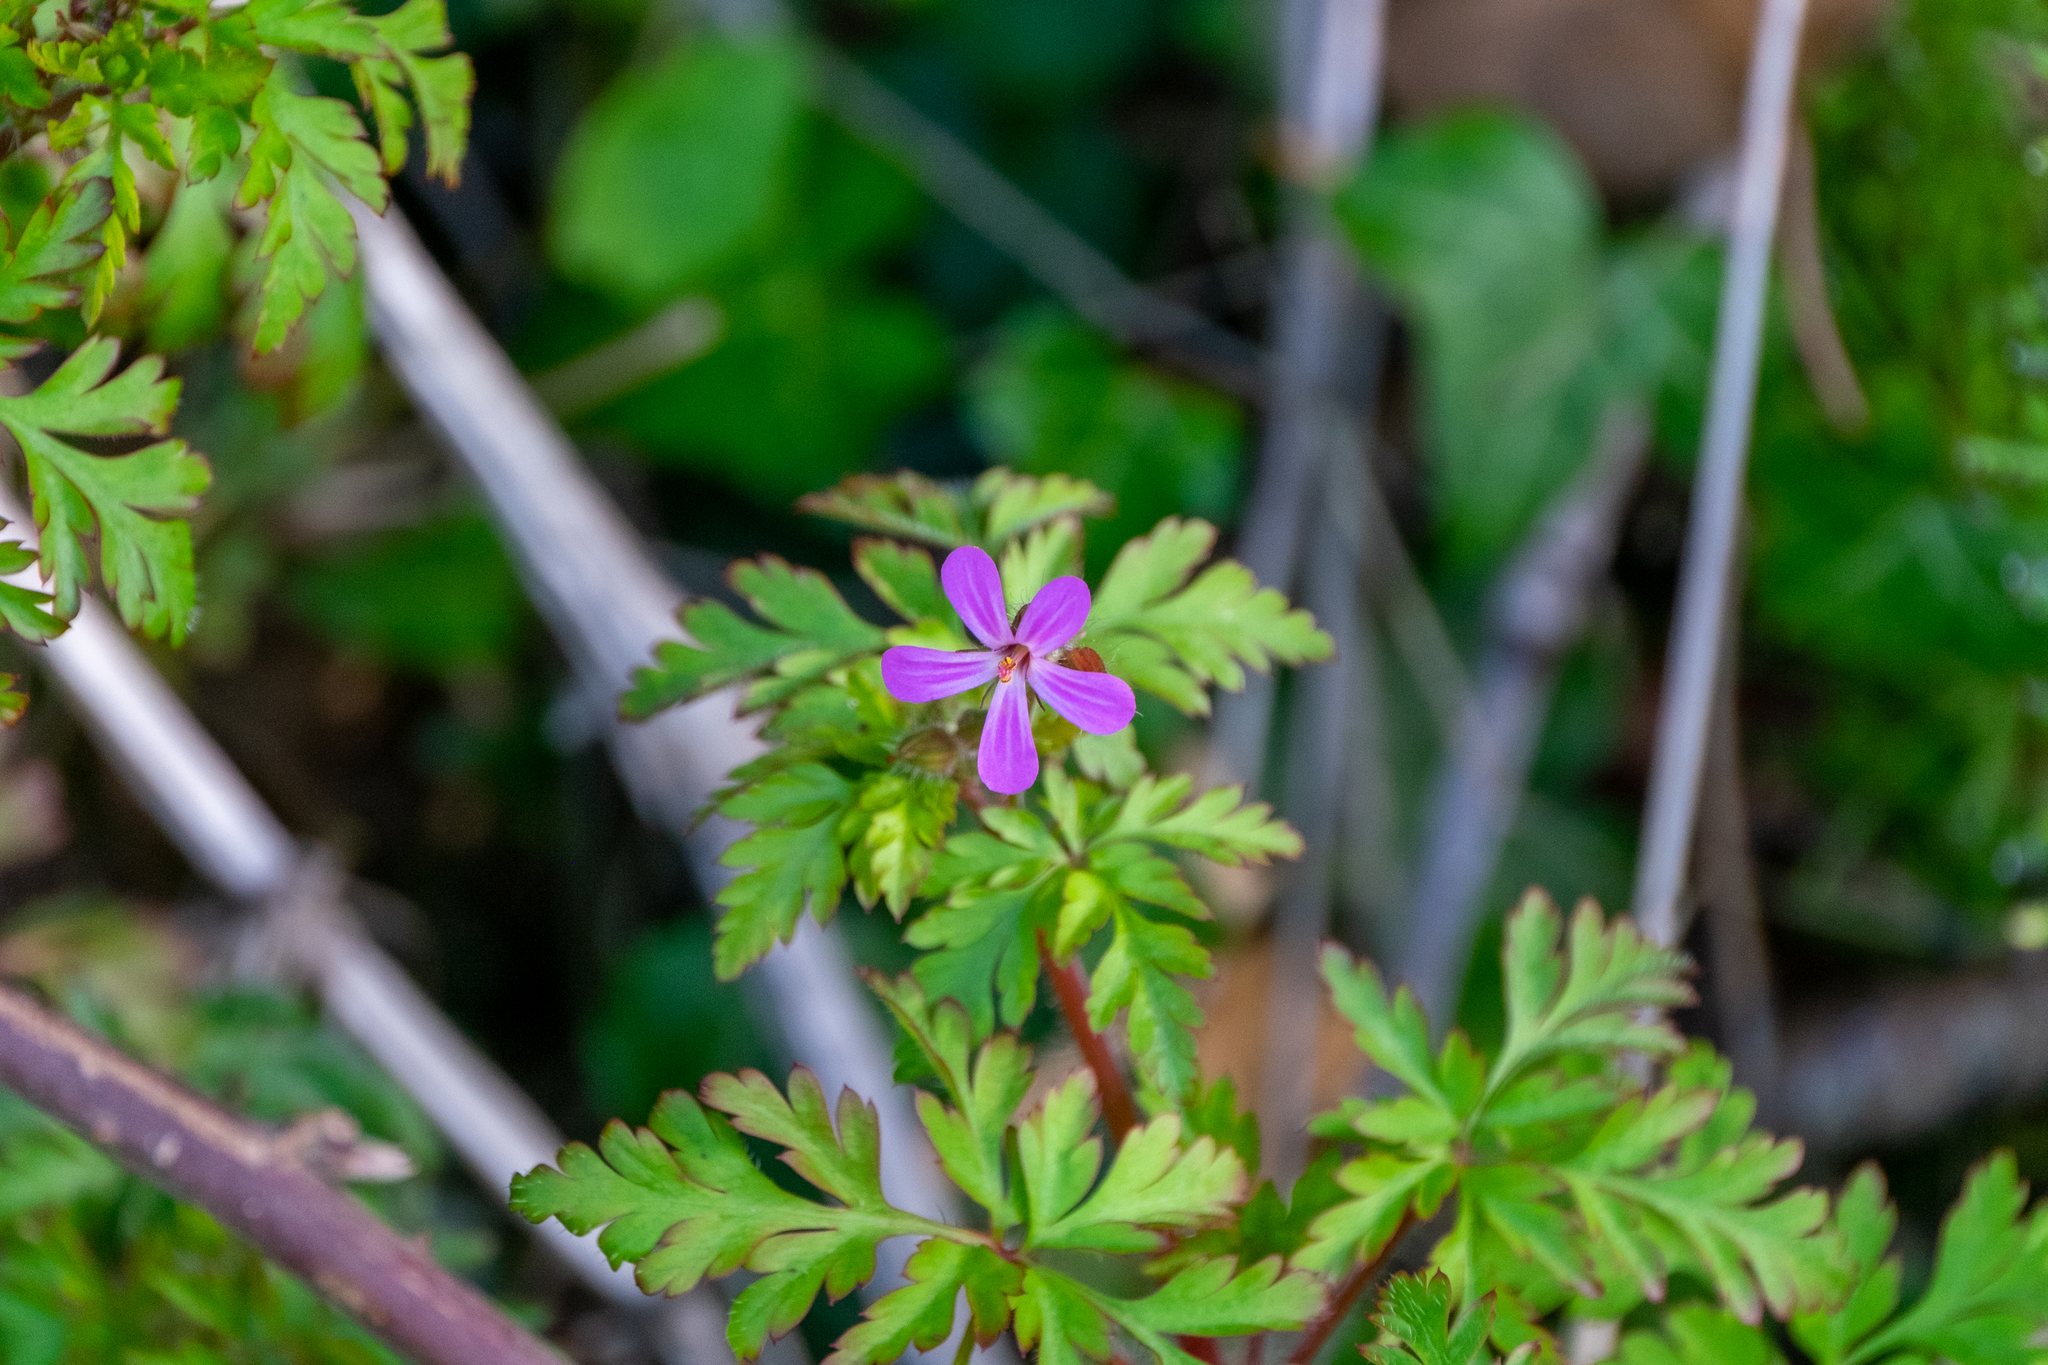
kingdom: Plantae
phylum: Tracheophyta
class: Magnoliopsida
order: Geraniales
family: Geraniaceae
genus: Geranium
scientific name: Geranium robertianum
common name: Herb-robert
